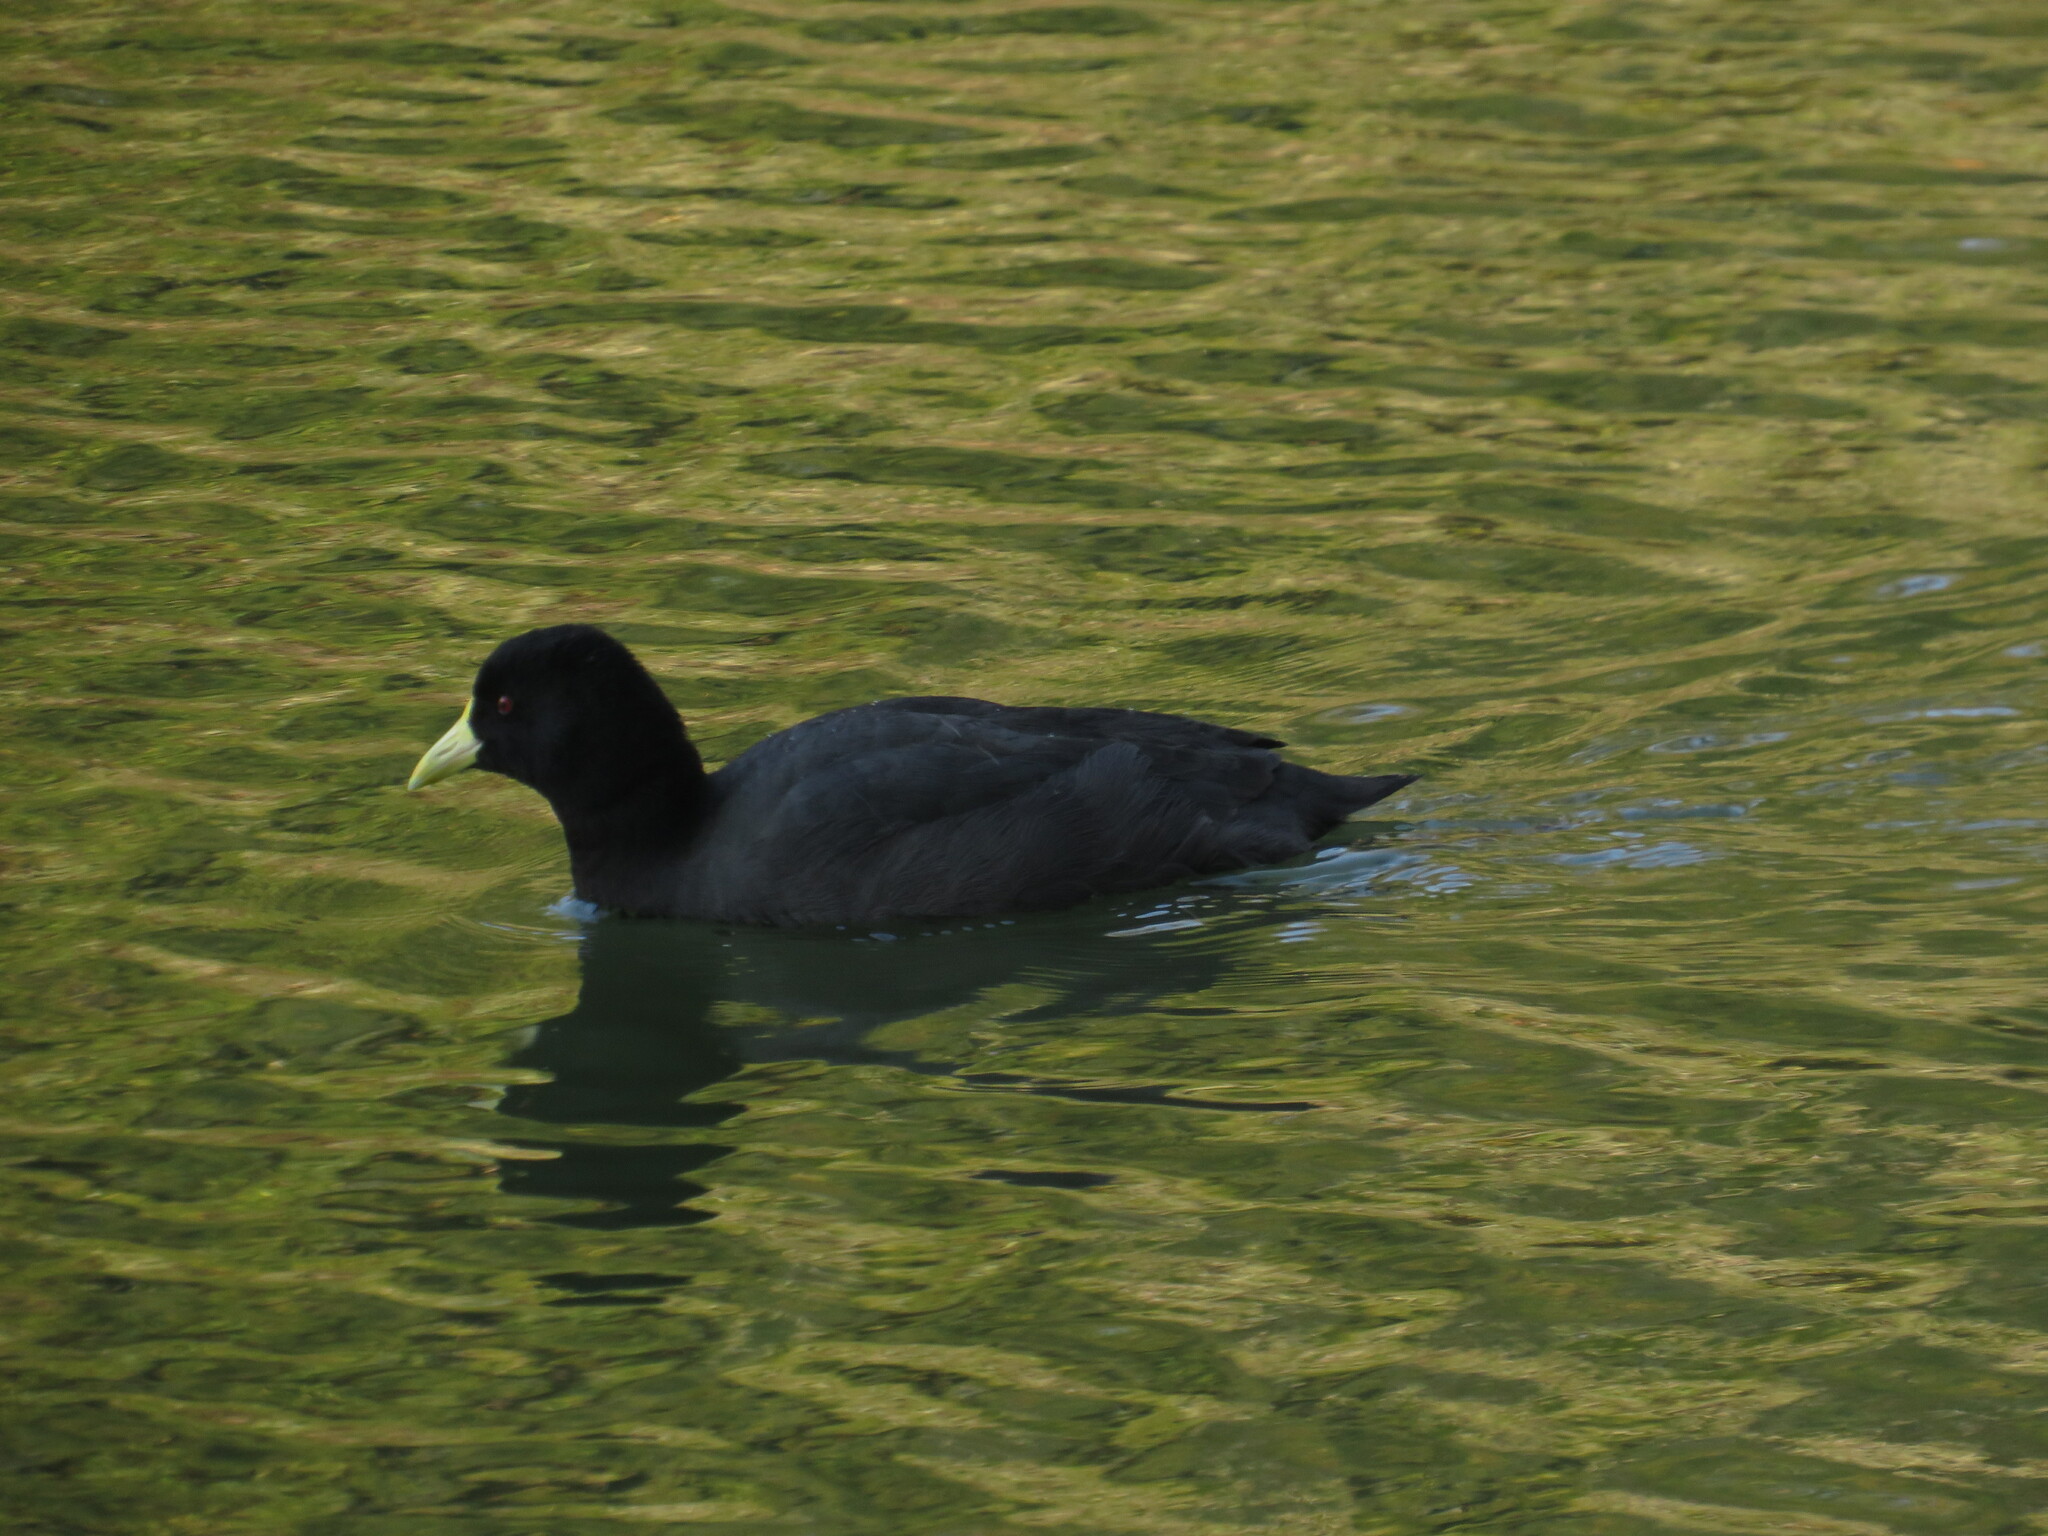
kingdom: Animalia
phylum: Chordata
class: Aves
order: Gruiformes
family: Rallidae
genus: Fulica
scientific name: Fulica leucoptera
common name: White-winged coot
